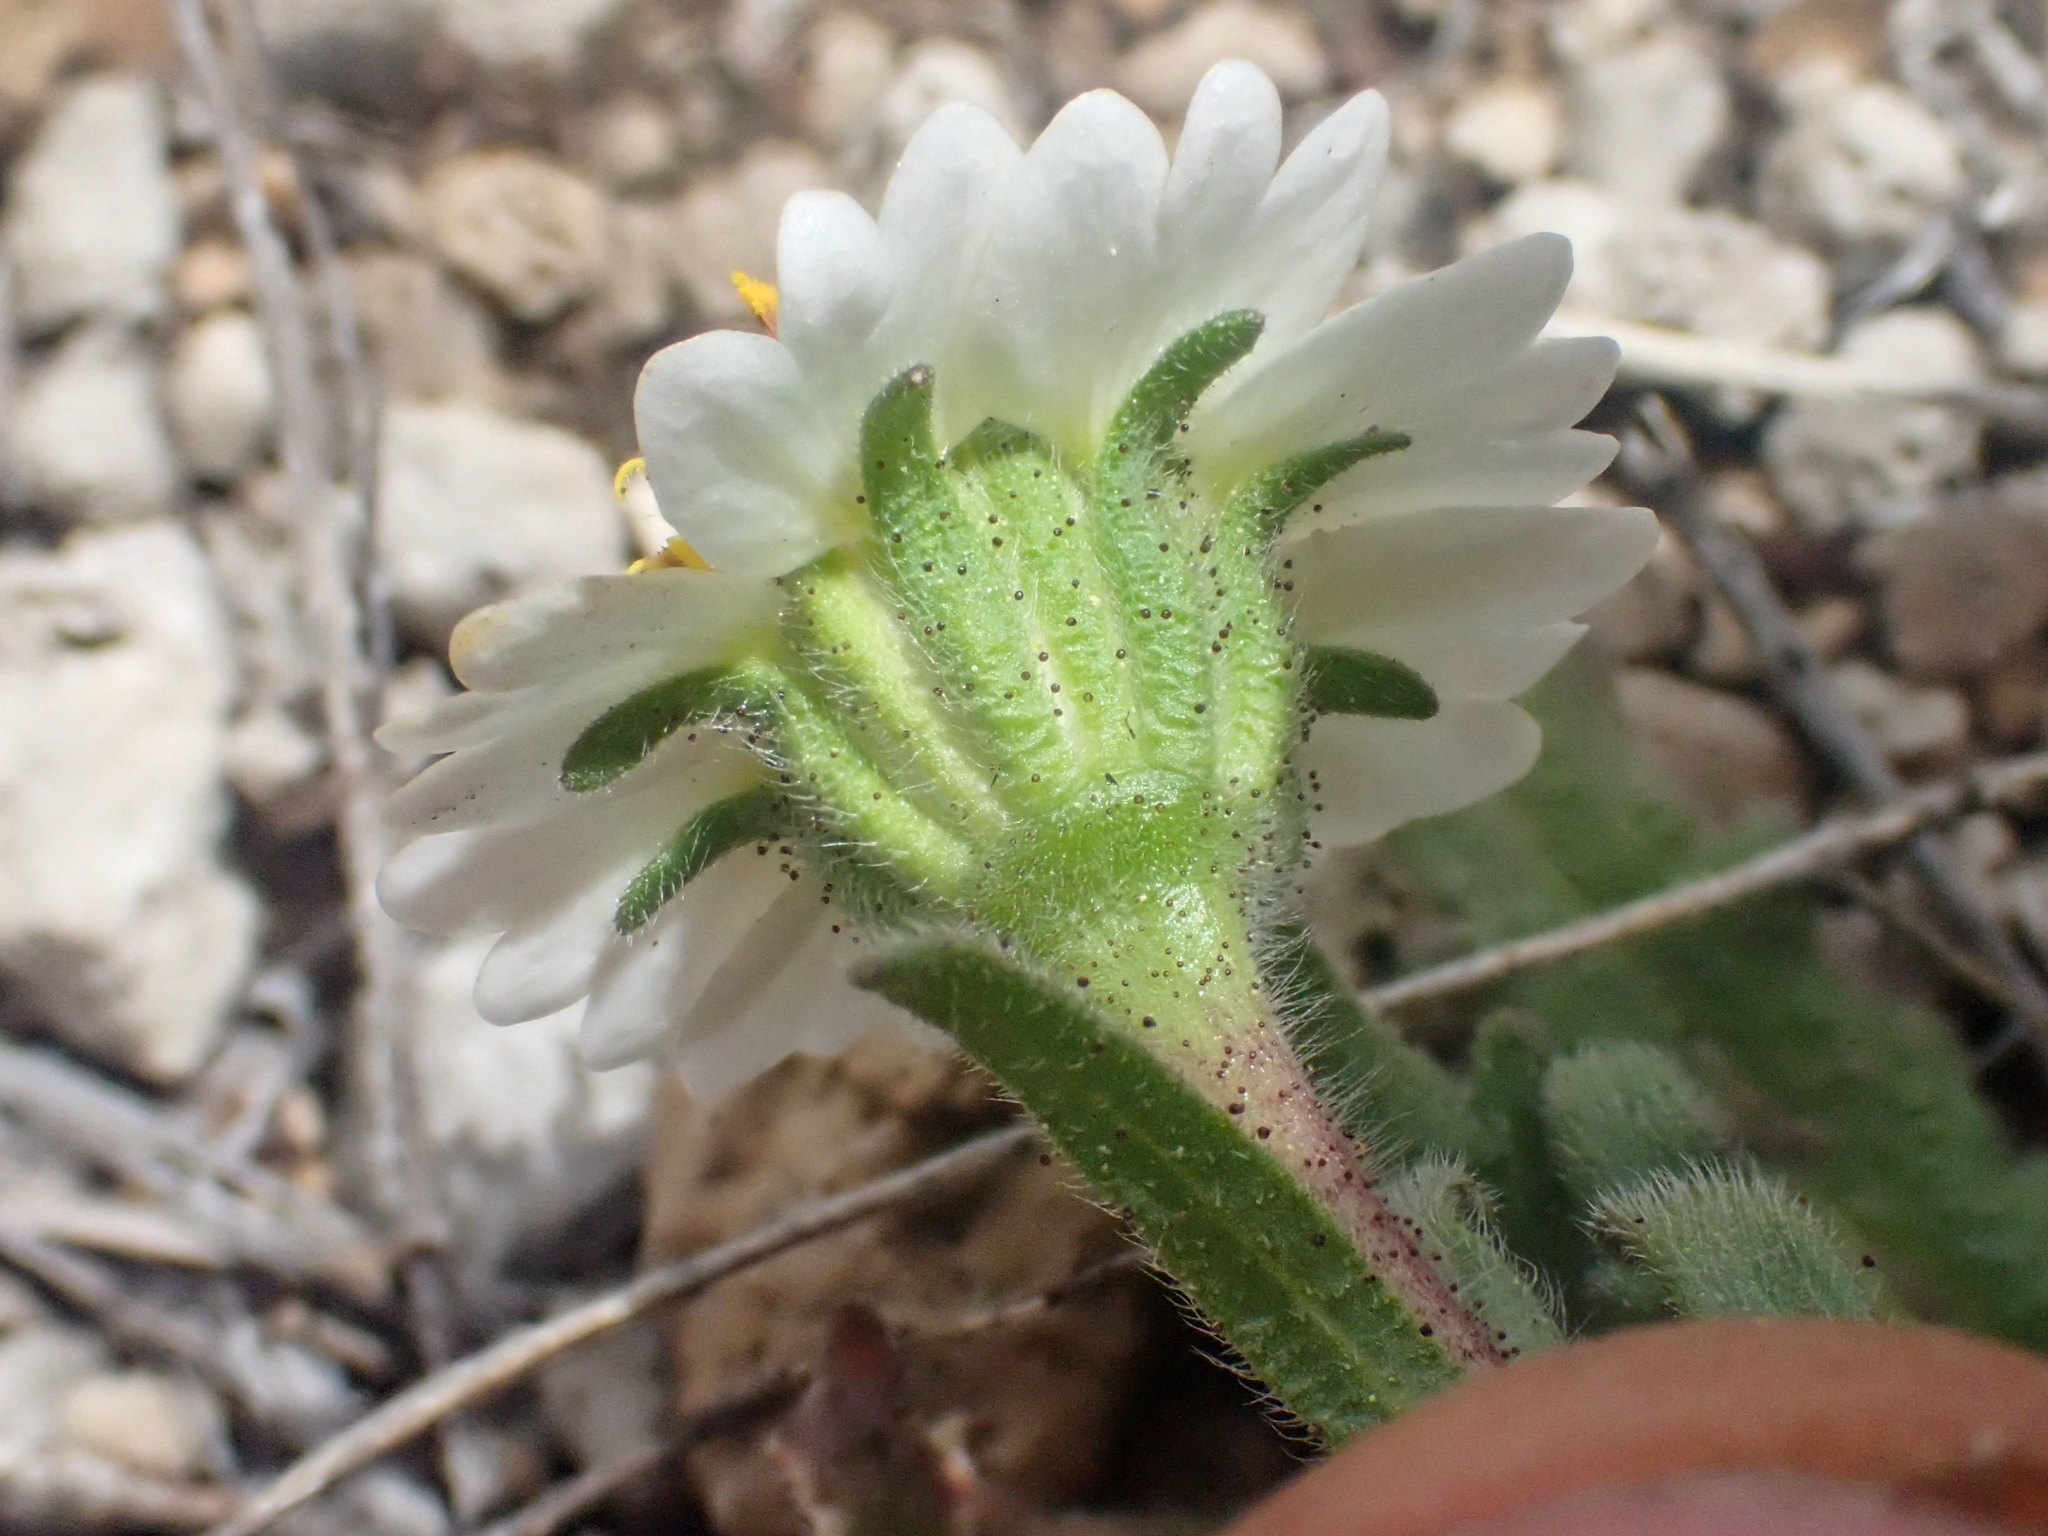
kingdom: Plantae
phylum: Tracheophyta
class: Magnoliopsida
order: Asterales
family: Asteraceae
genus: Layia
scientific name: Layia glandulosa
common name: White layia
